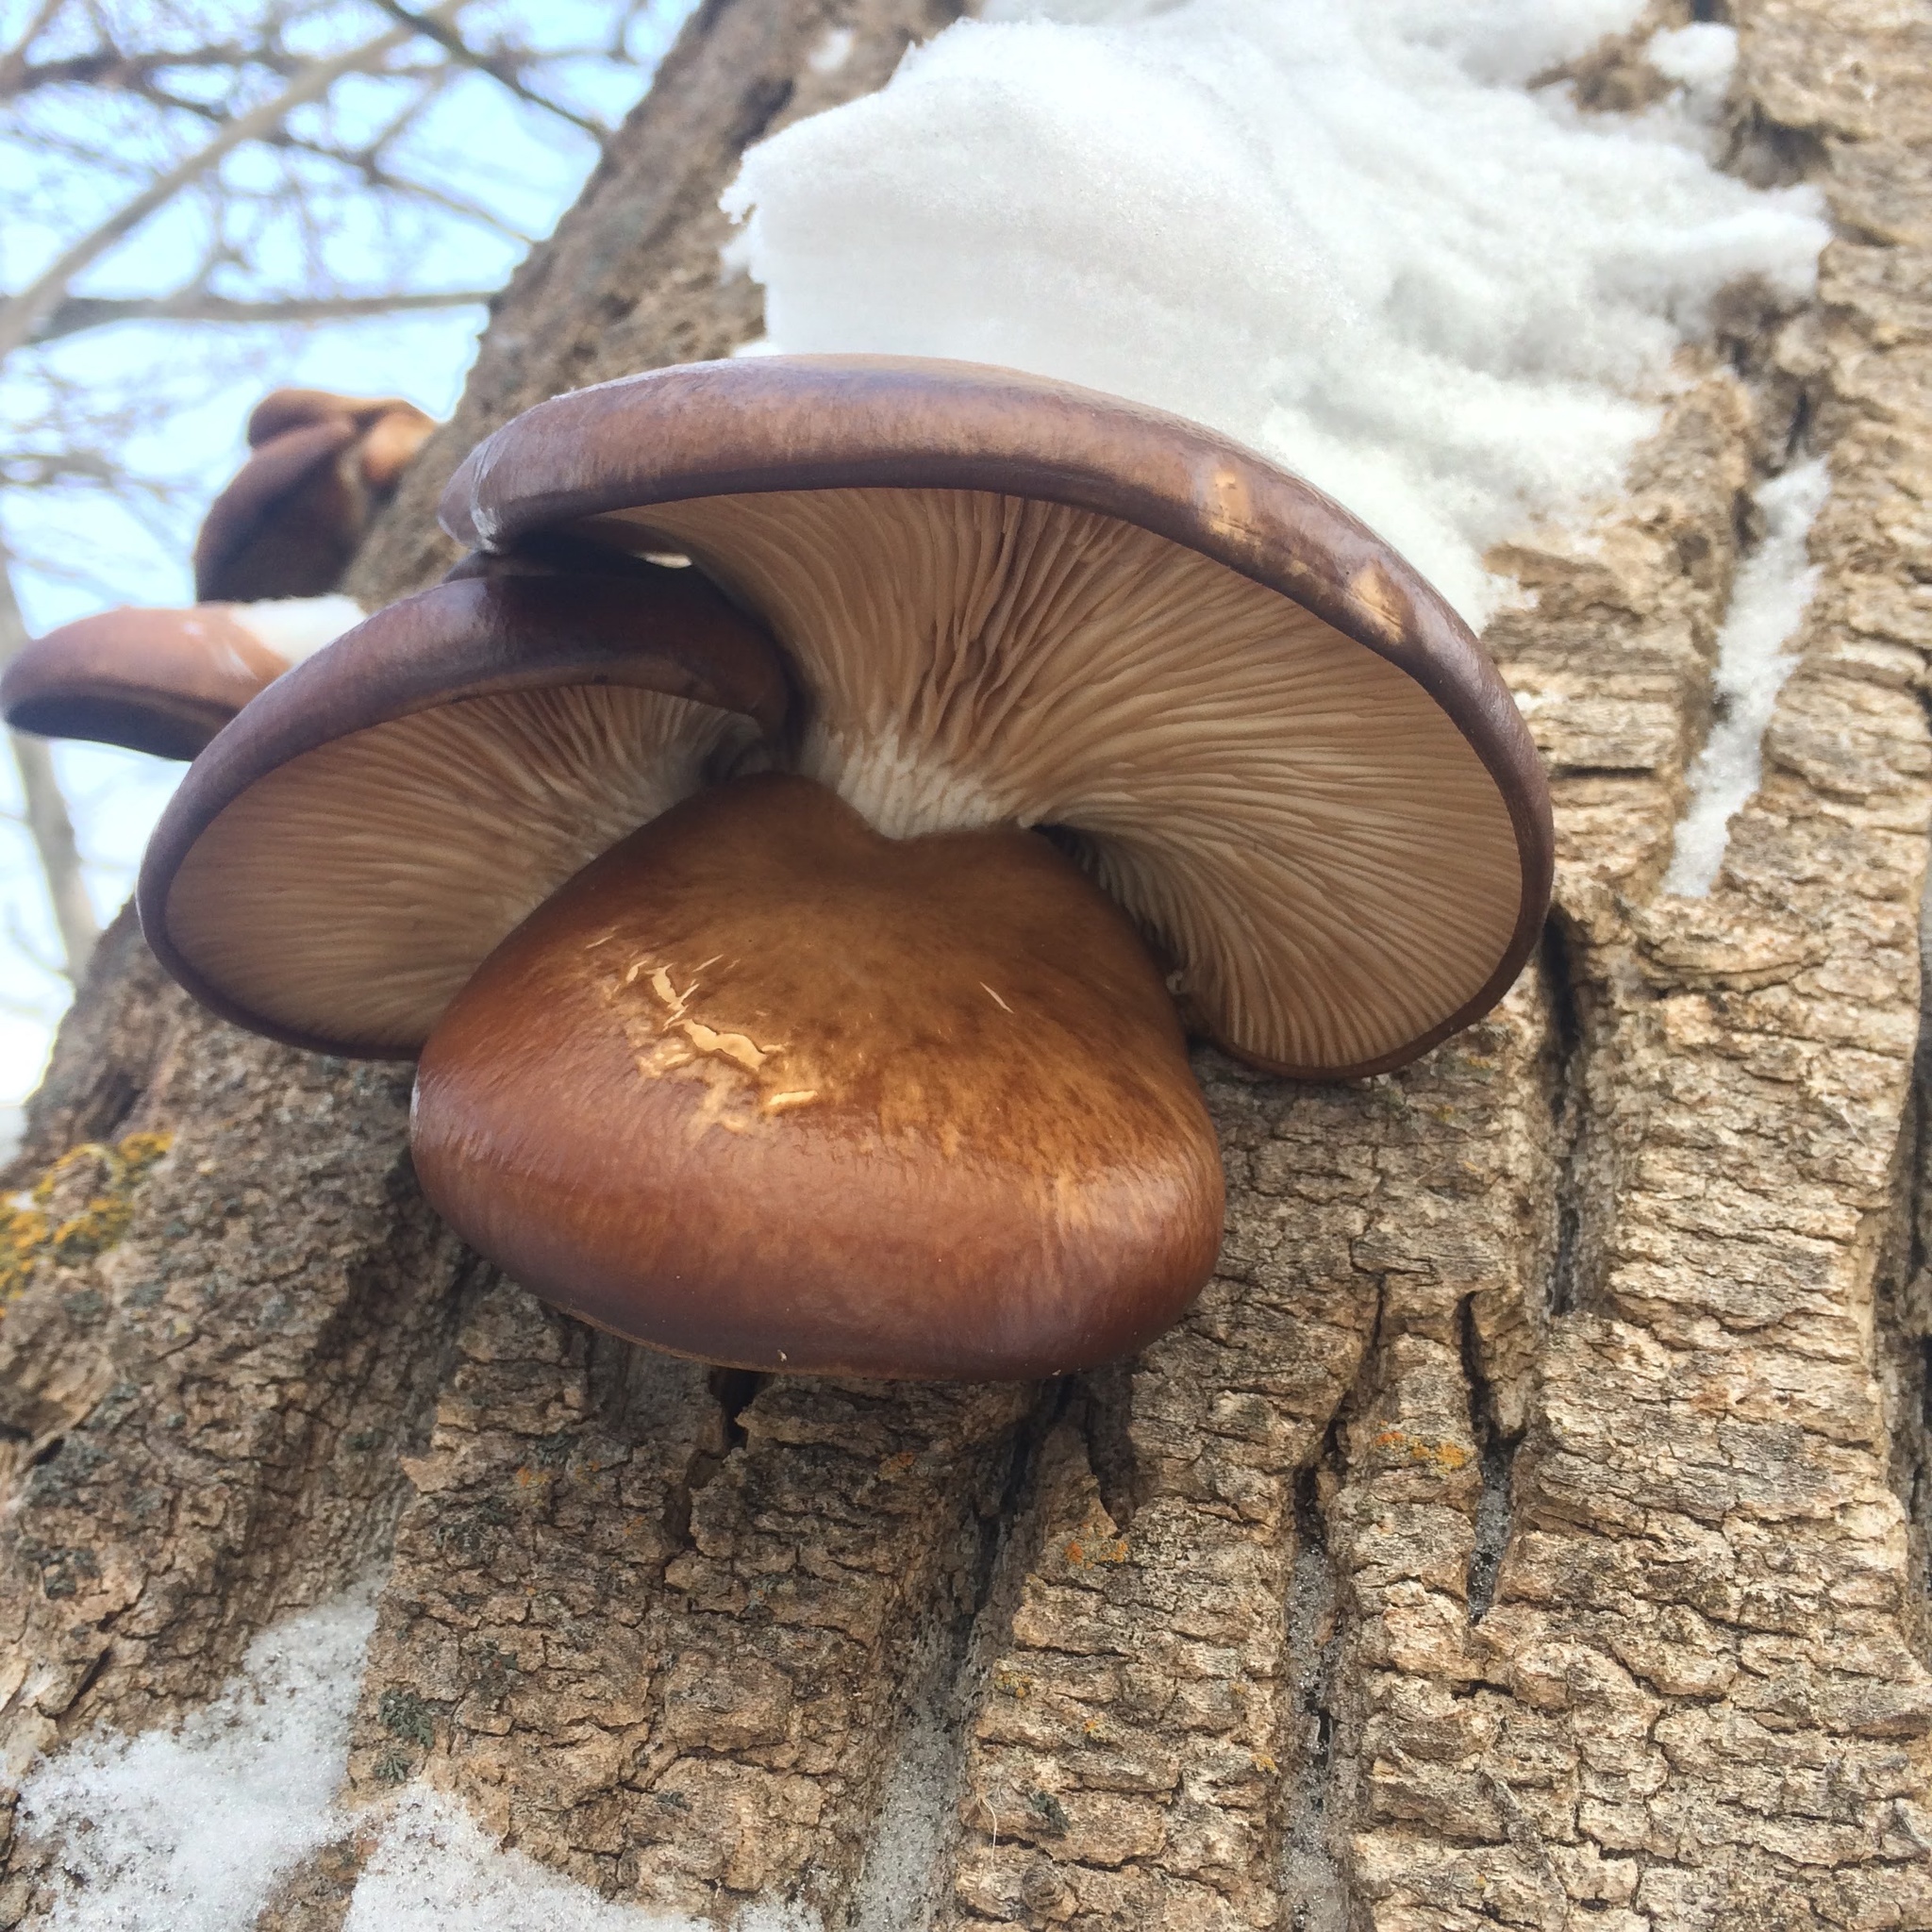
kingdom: Fungi
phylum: Basidiomycota
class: Agaricomycetes
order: Agaricales
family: Pleurotaceae
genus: Pleurotus
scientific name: Pleurotus ostreatus
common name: Oyster mushroom
